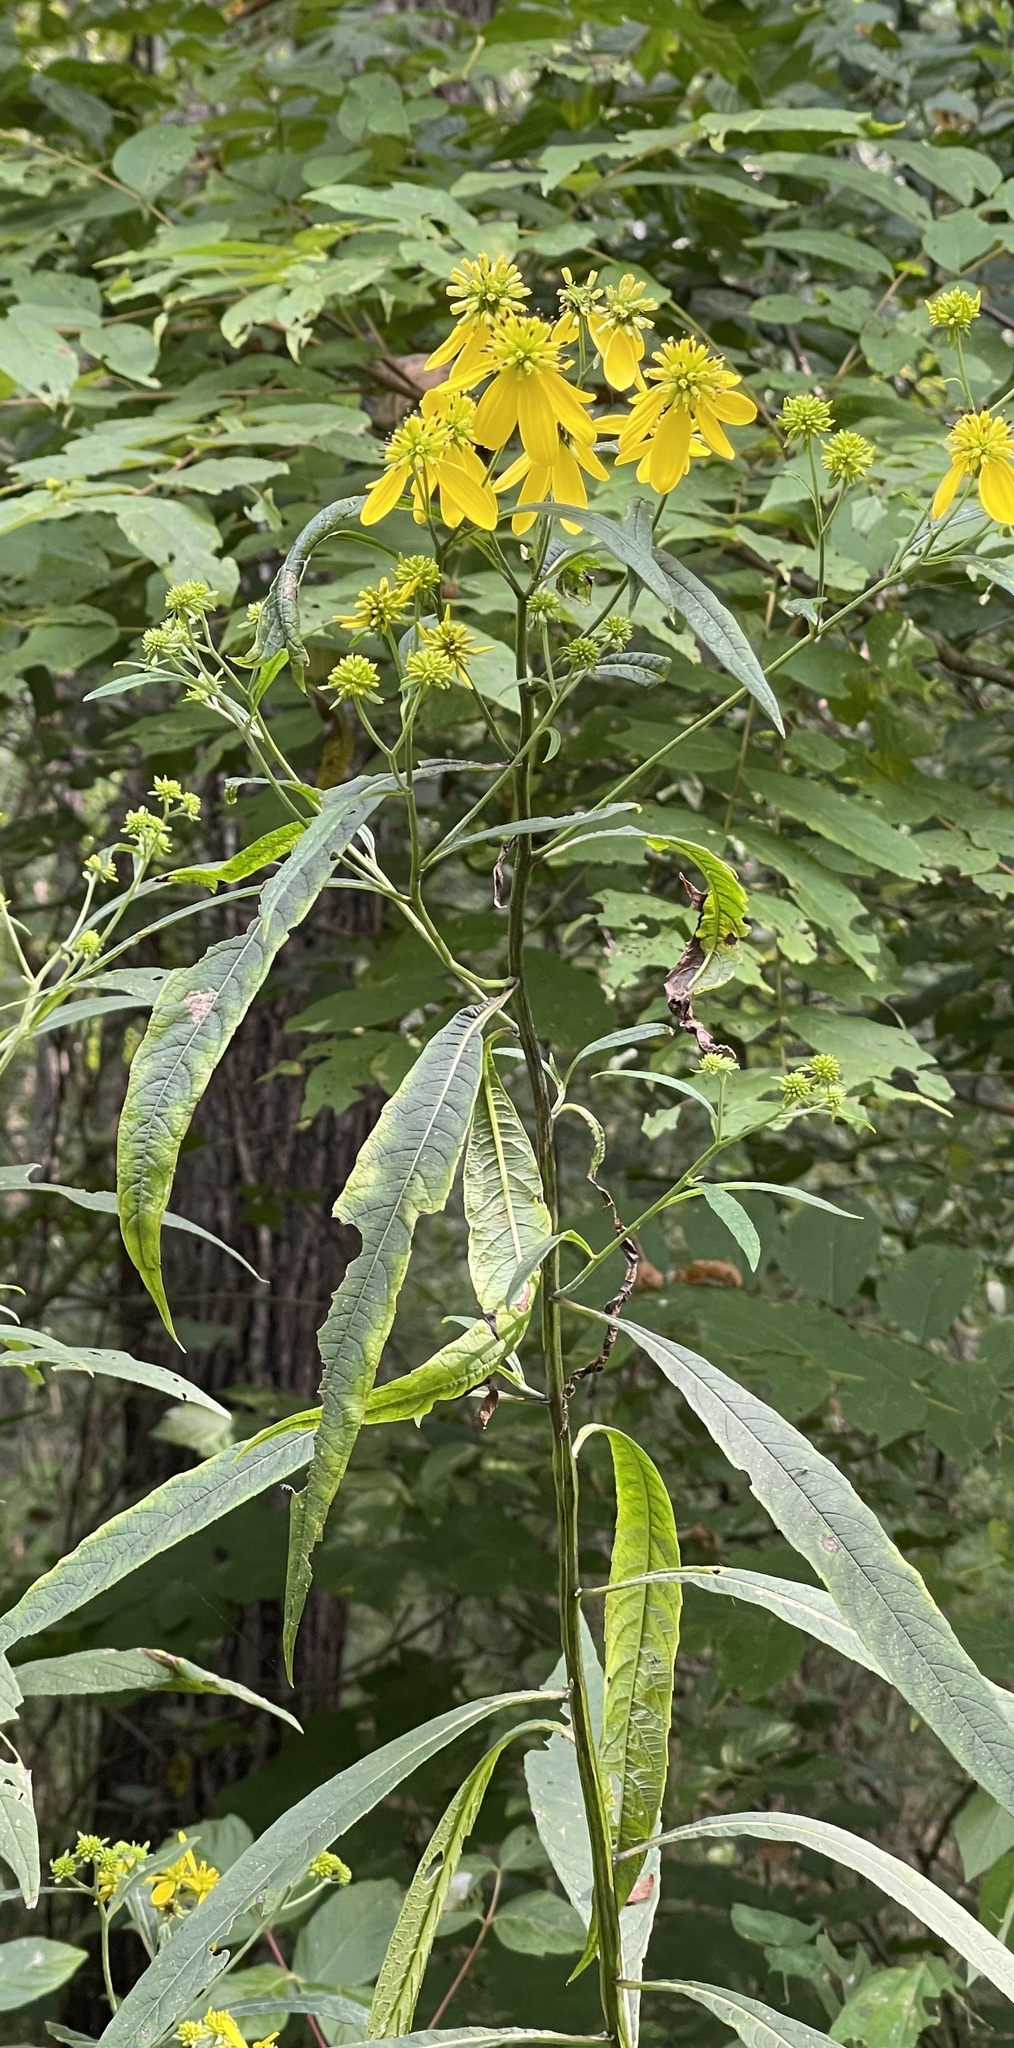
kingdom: Plantae
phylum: Tracheophyta
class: Magnoliopsida
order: Asterales
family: Asteraceae
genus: Verbesina
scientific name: Verbesina alternifolia
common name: Wingstem
